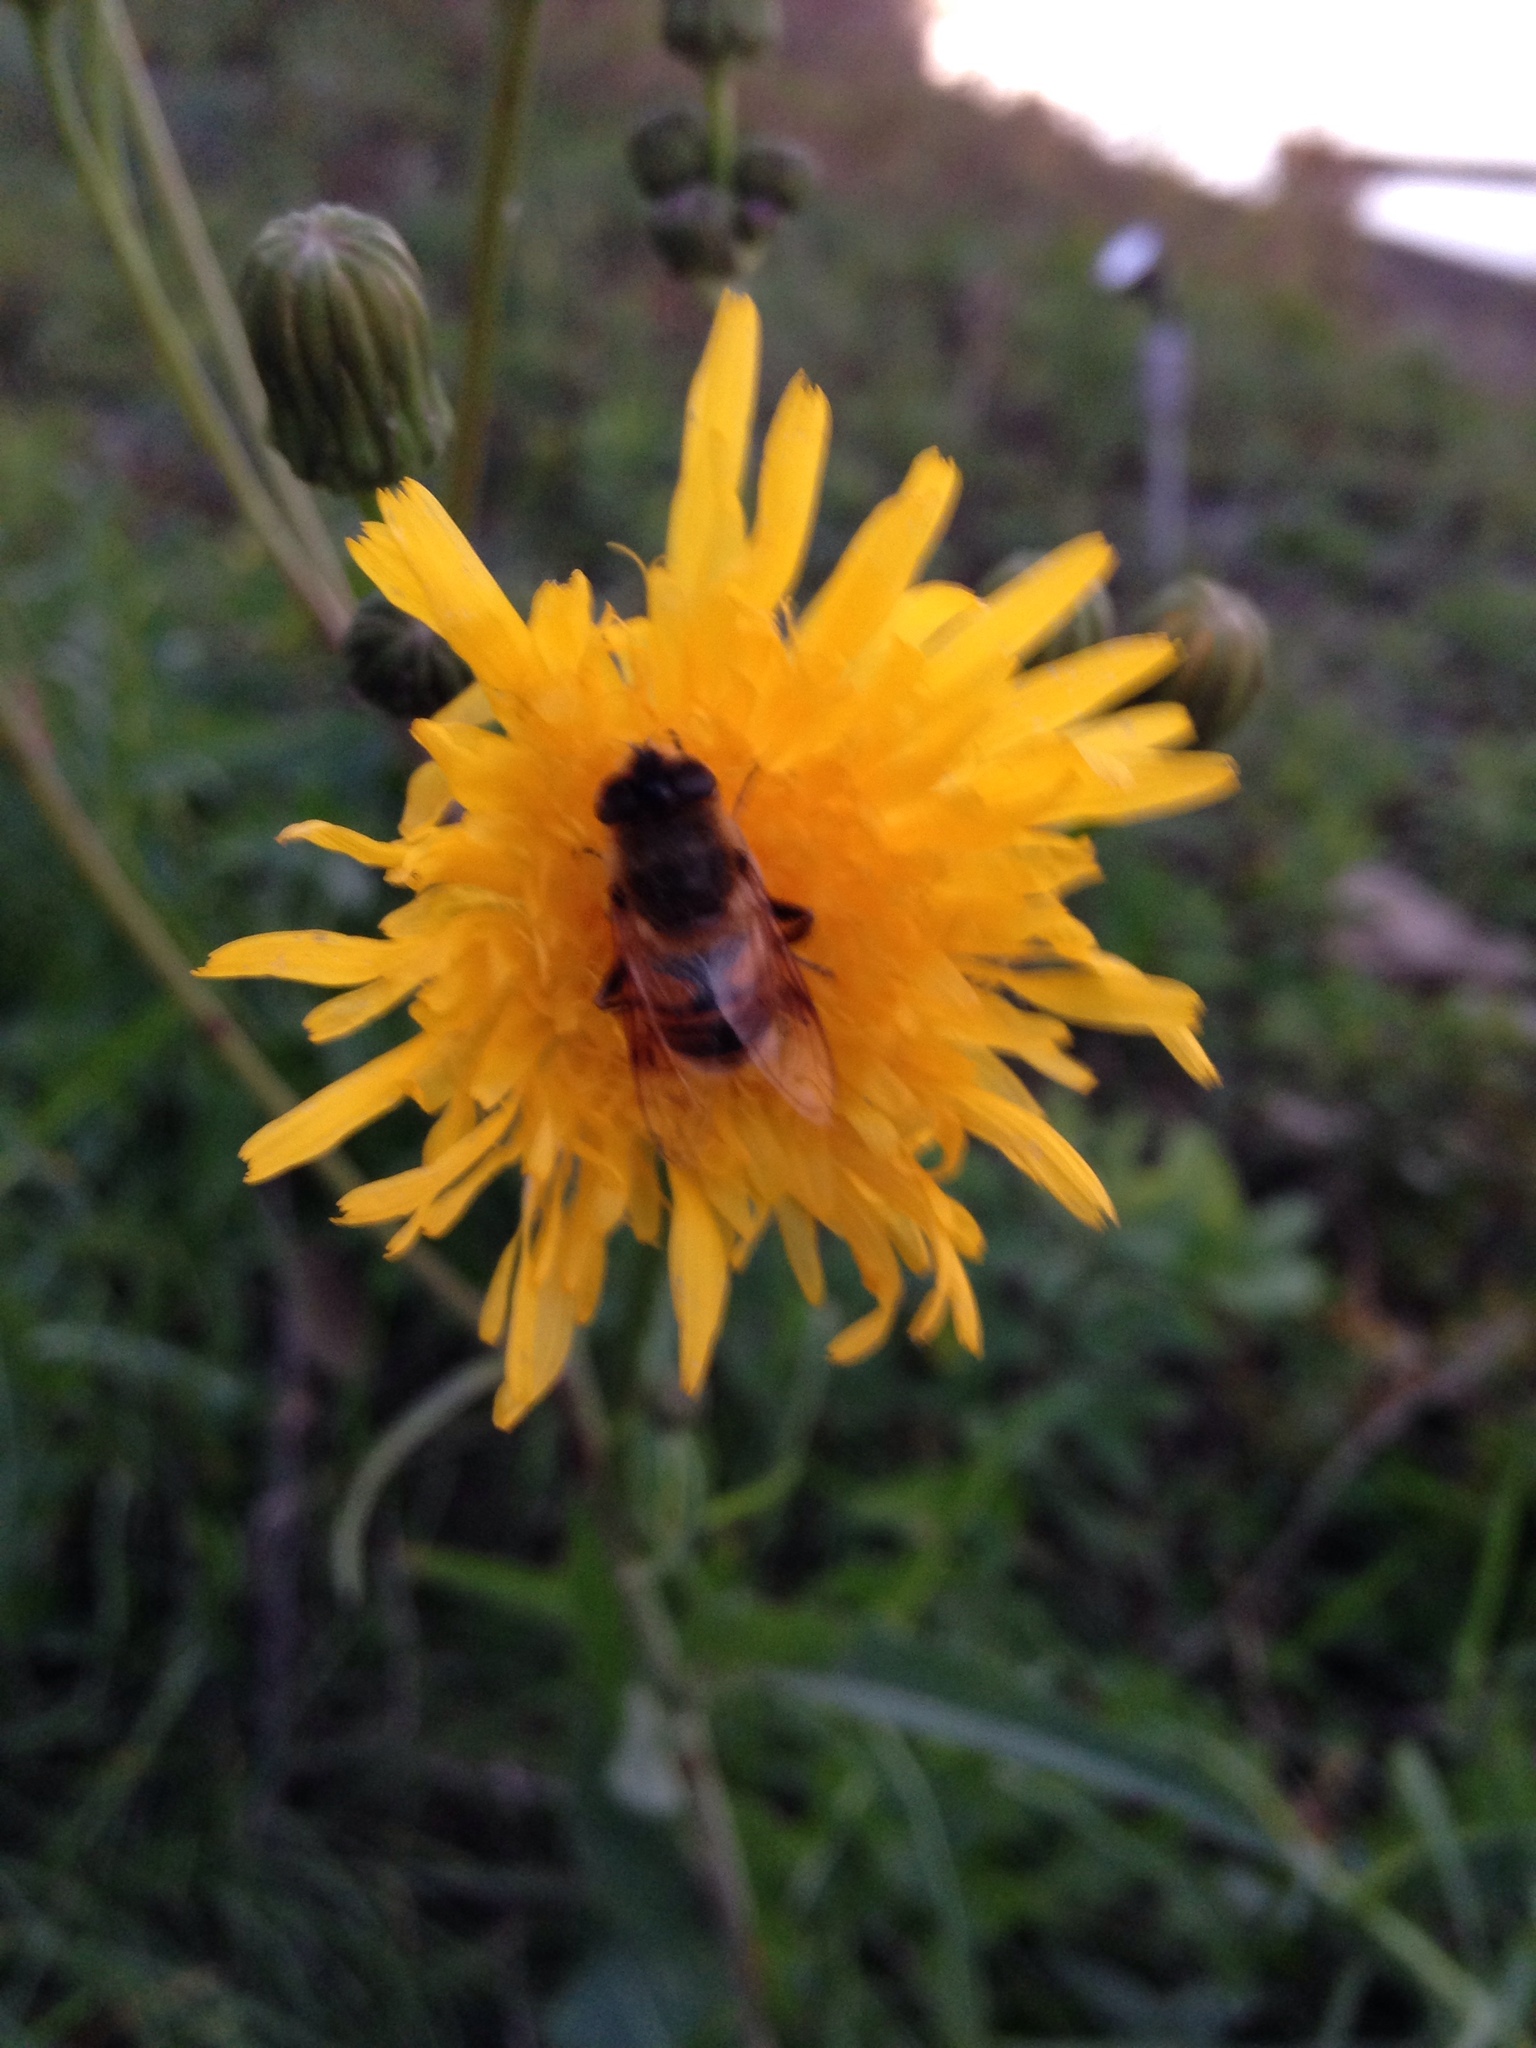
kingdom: Animalia
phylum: Arthropoda
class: Insecta
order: Diptera
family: Syrphidae
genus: Eristalis
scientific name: Eristalis tenax
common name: Drone fly
